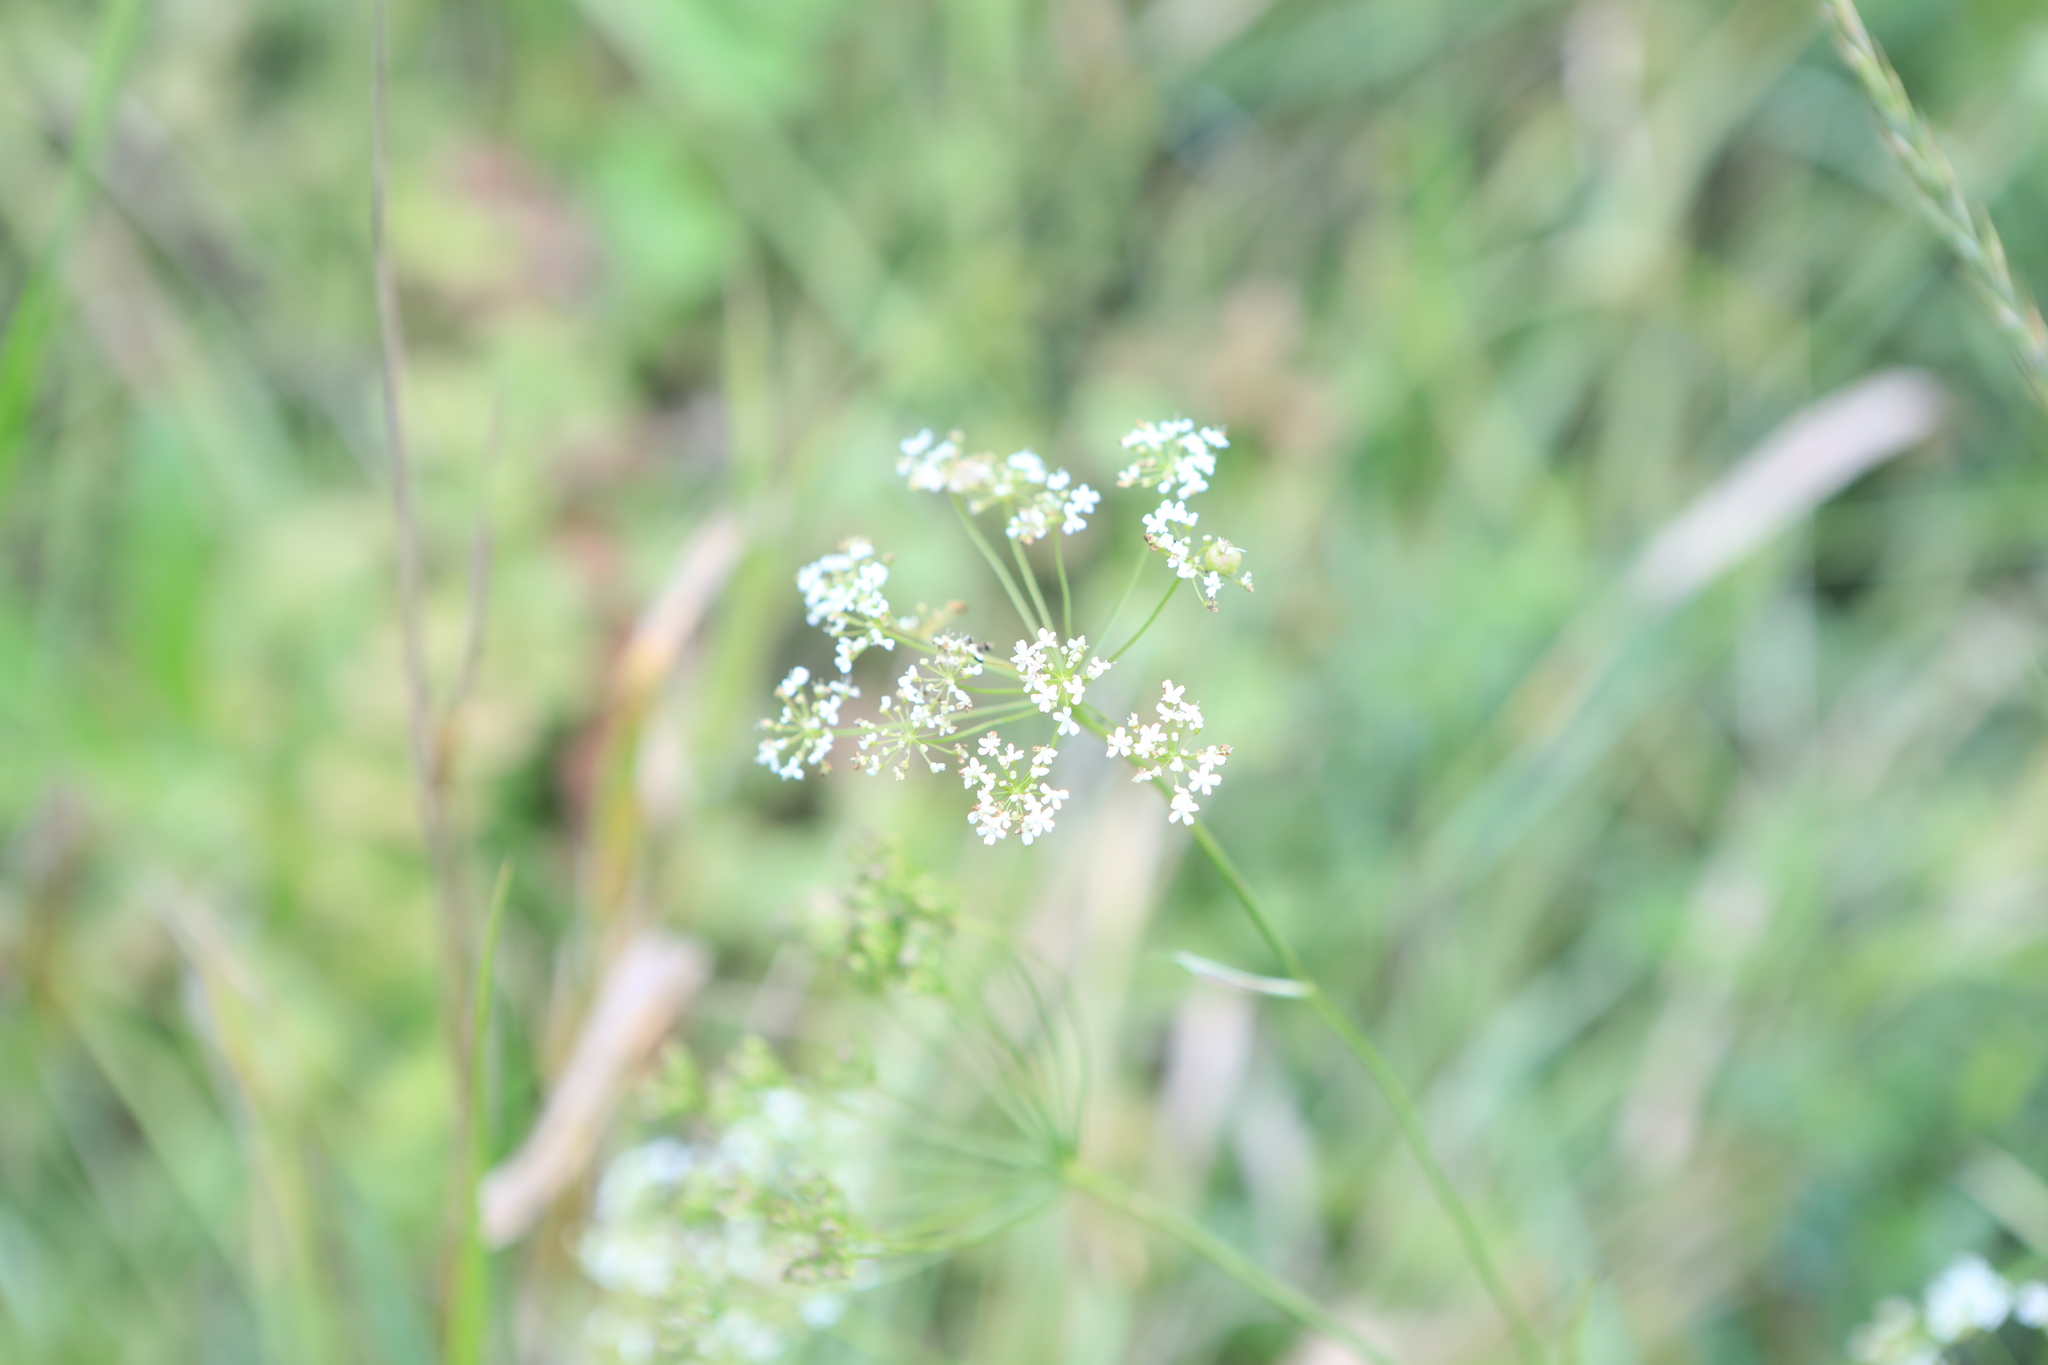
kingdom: Plantae
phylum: Tracheophyta
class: Magnoliopsida
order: Apiales
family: Apiaceae
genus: Pimpinella
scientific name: Pimpinella saxifraga
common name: Burnet-saxifrage
